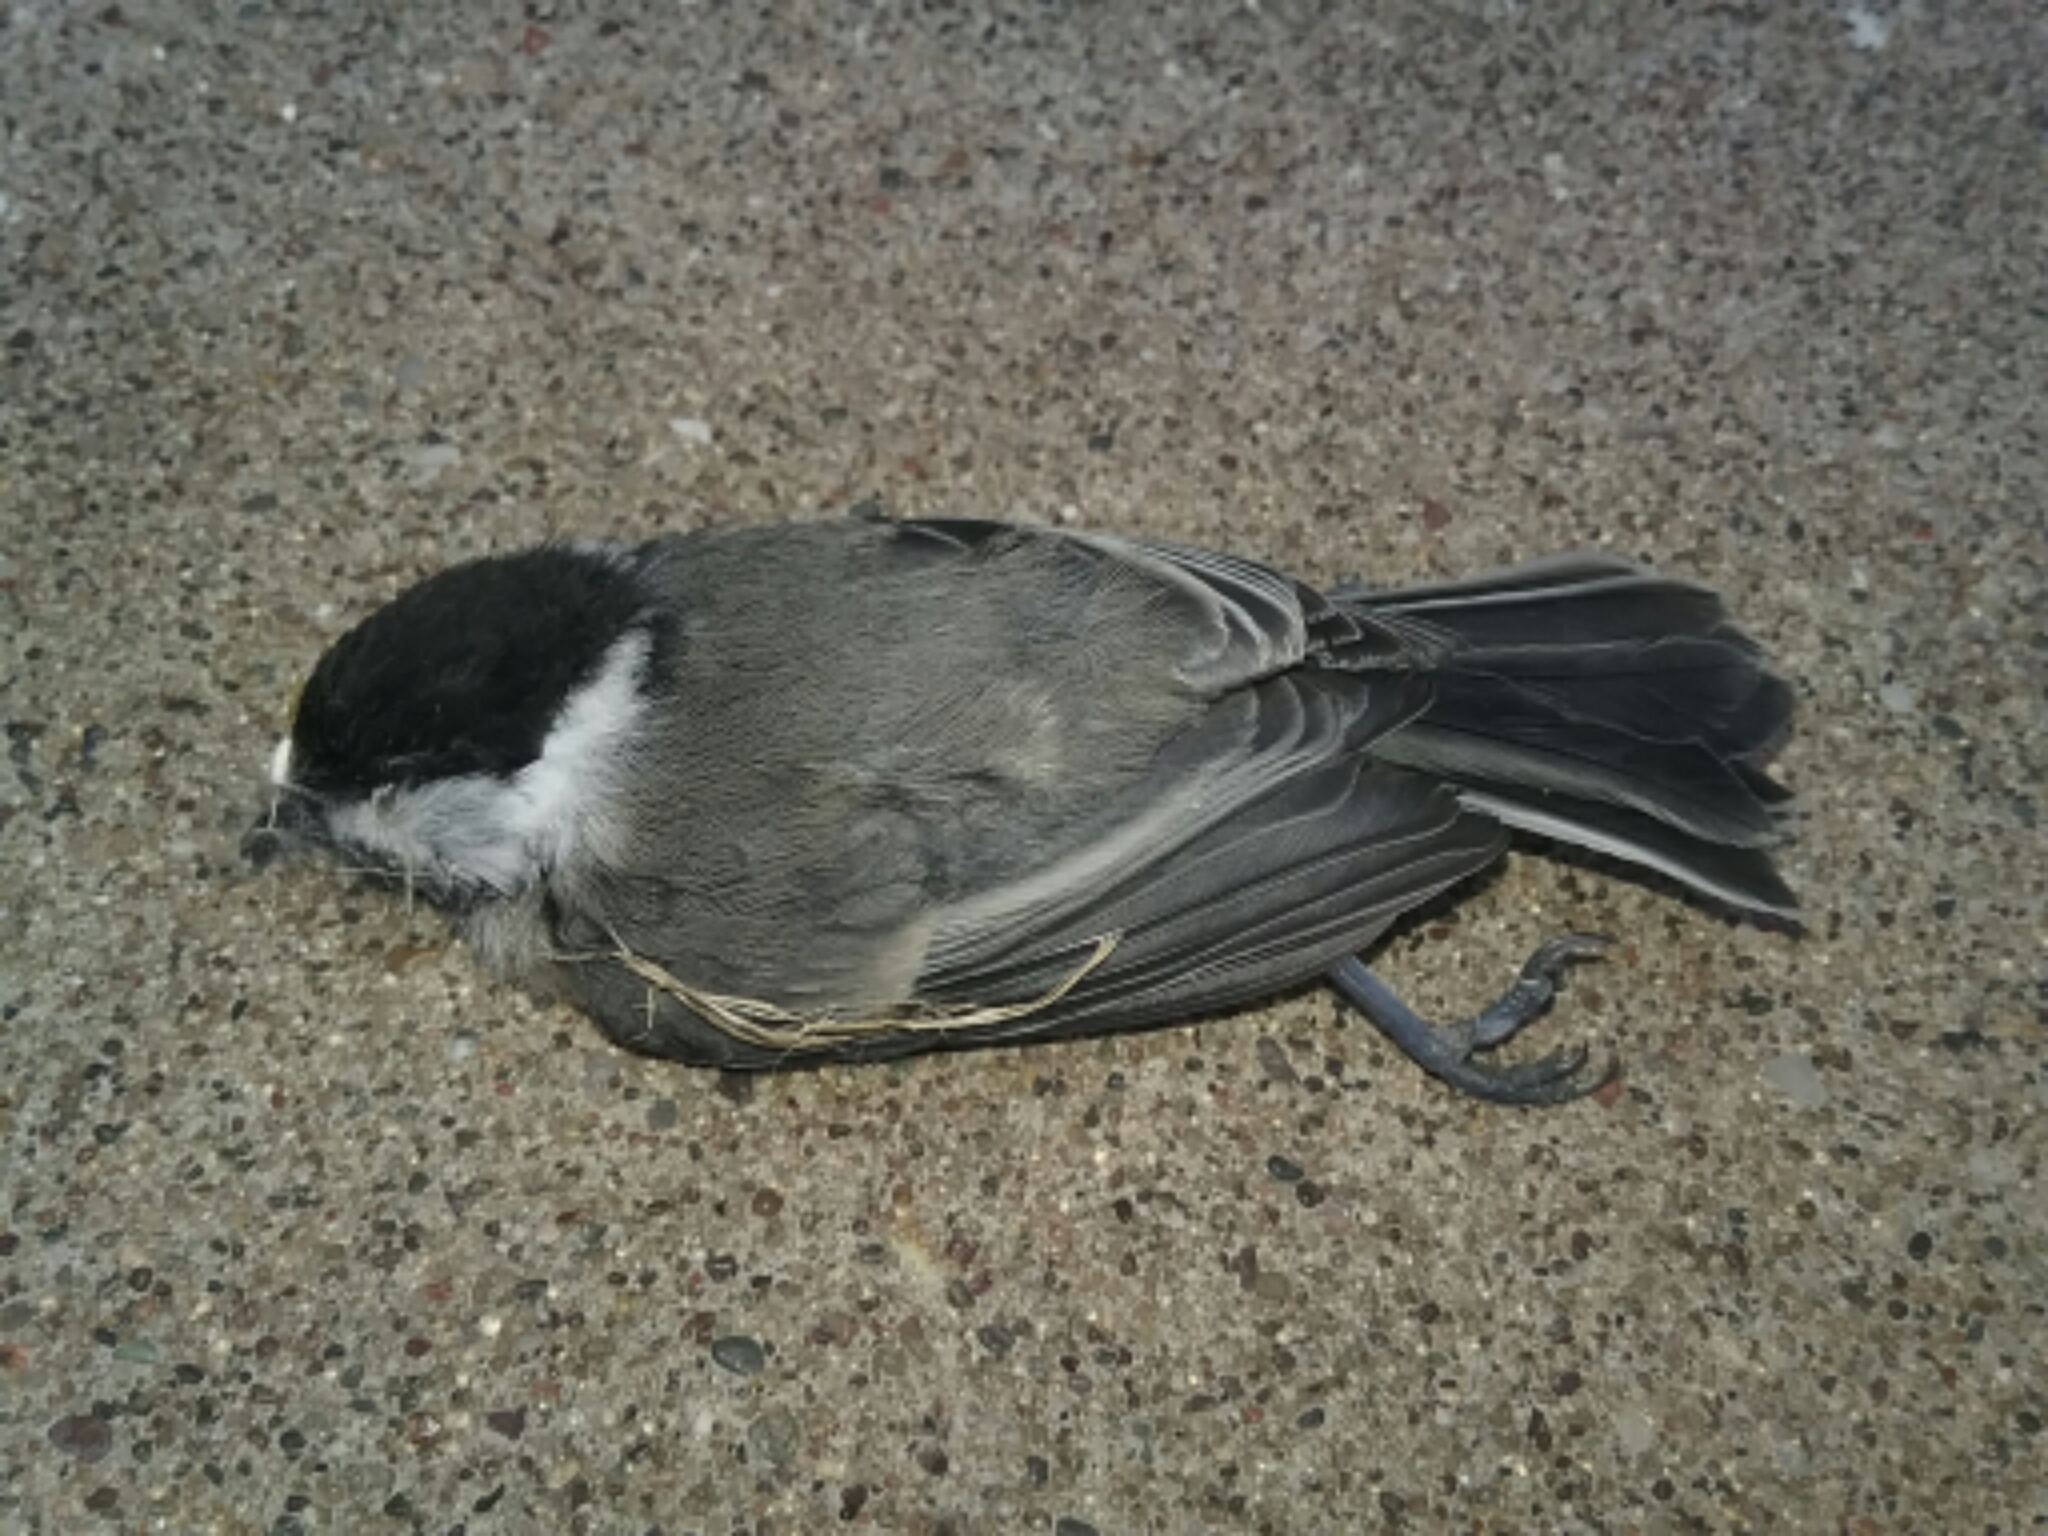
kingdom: Animalia
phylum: Chordata
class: Aves
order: Passeriformes
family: Paridae
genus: Poecile
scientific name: Poecile atricapillus
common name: Black-capped chickadee
